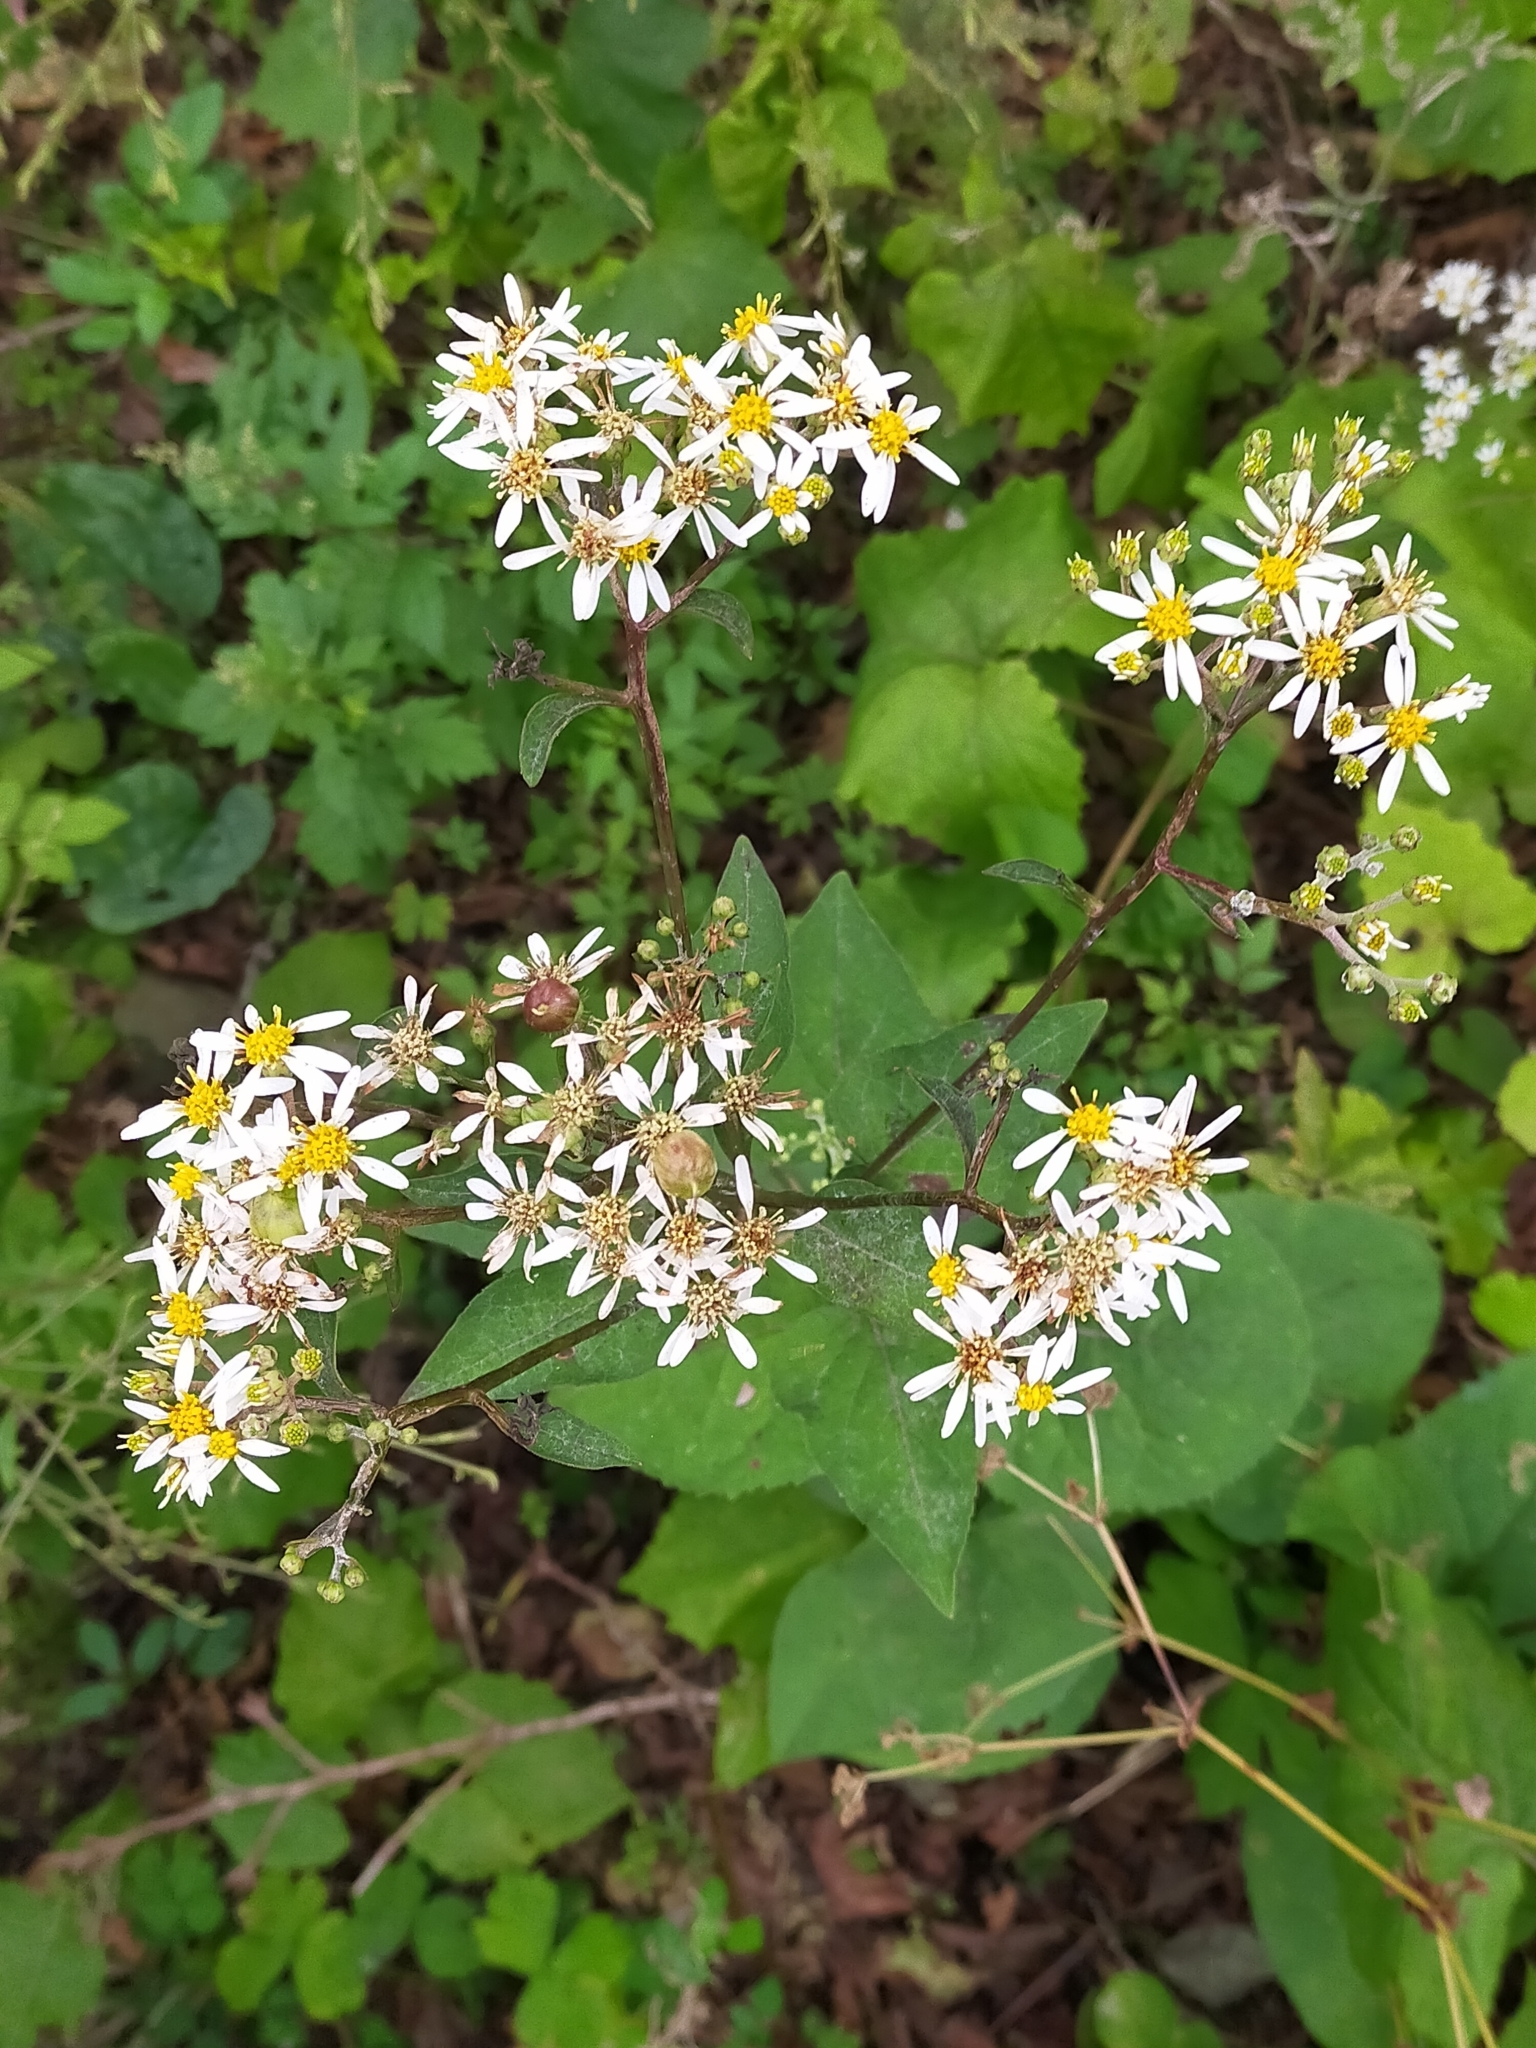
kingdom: Plantae
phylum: Tracheophyta
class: Magnoliopsida
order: Asterales
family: Asteraceae
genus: Aster
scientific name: Aster scaber
